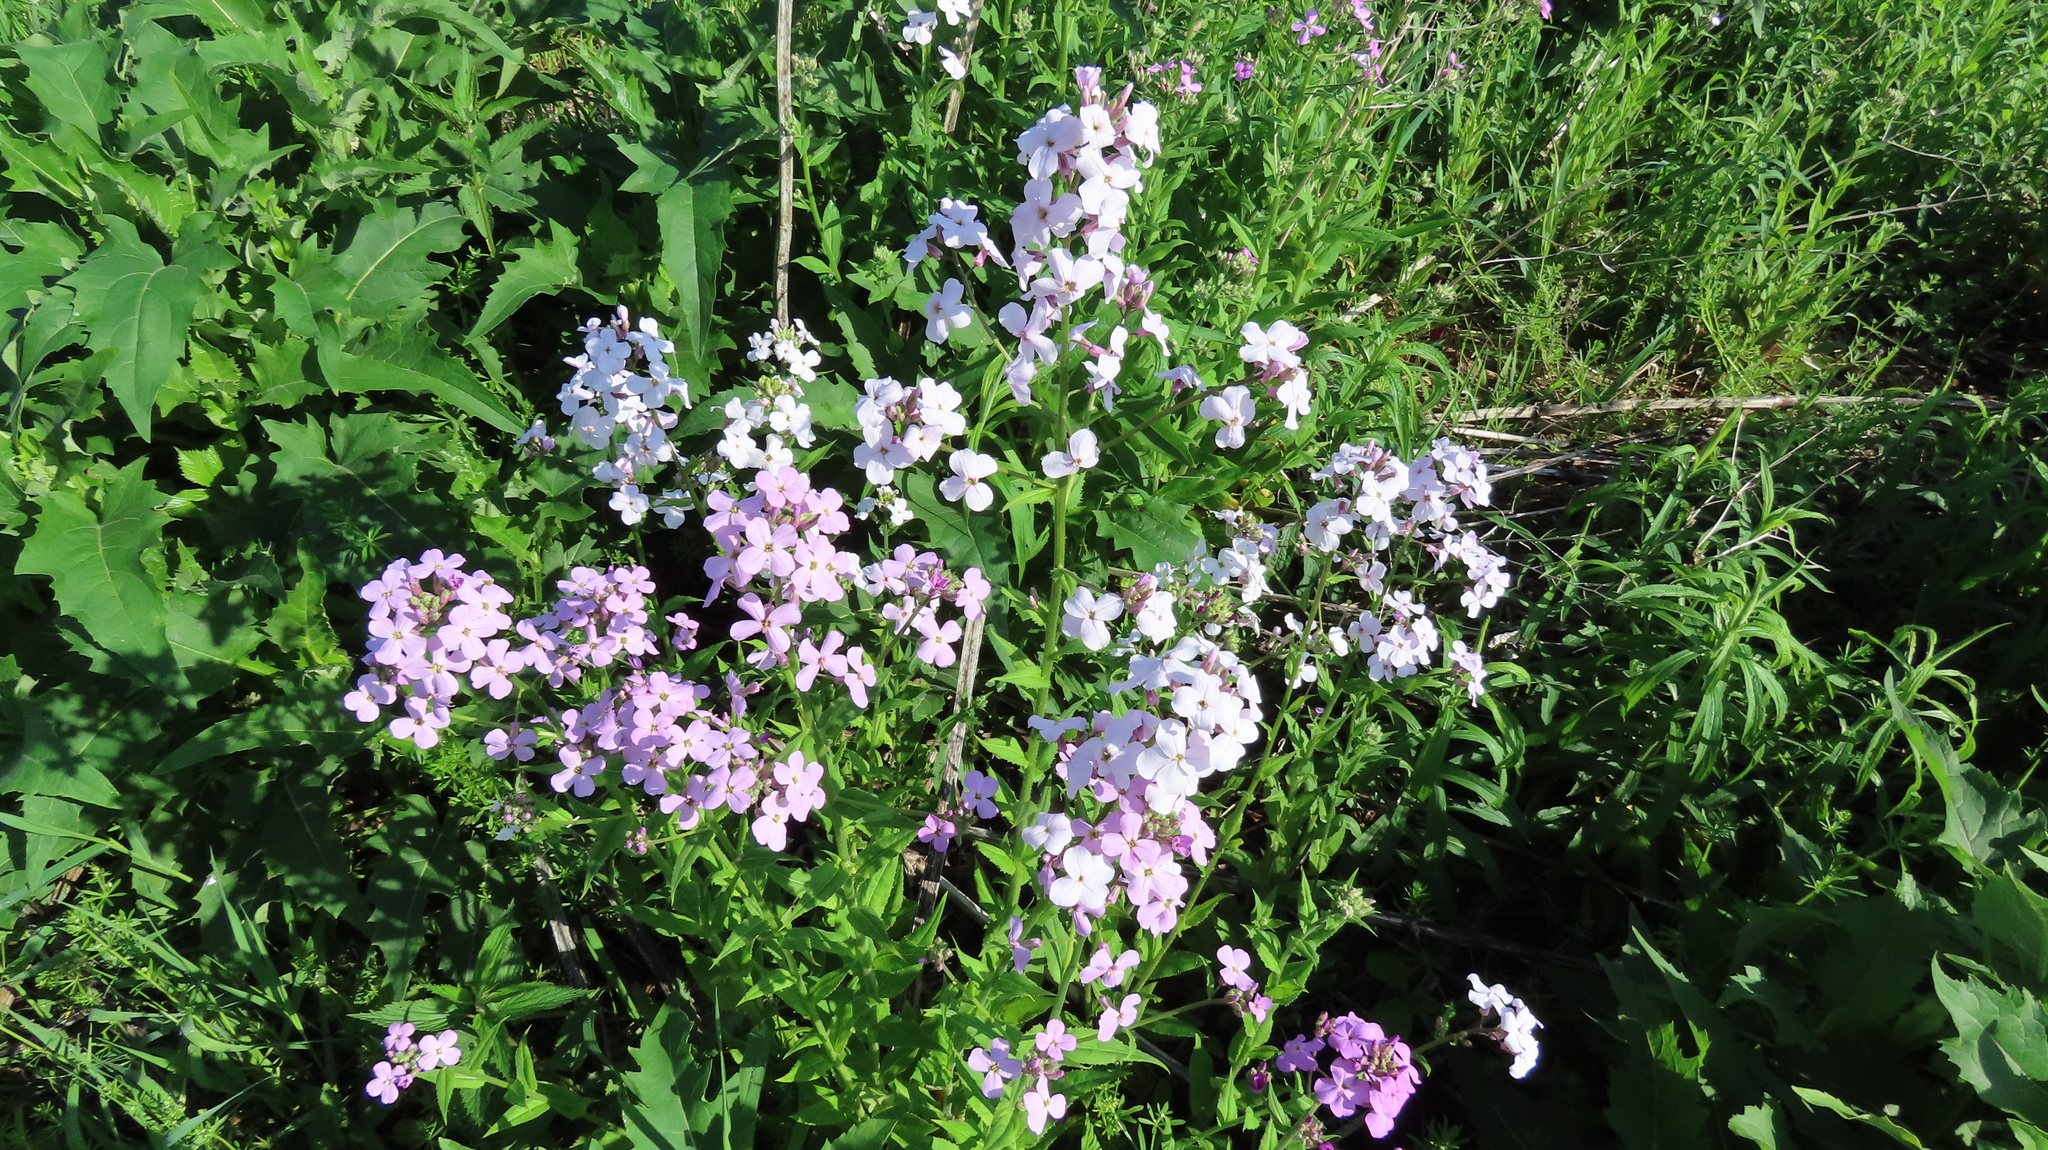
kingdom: Plantae
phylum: Tracheophyta
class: Magnoliopsida
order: Brassicales
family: Brassicaceae
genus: Hesperis
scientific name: Hesperis matronalis
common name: Dame's-violet
